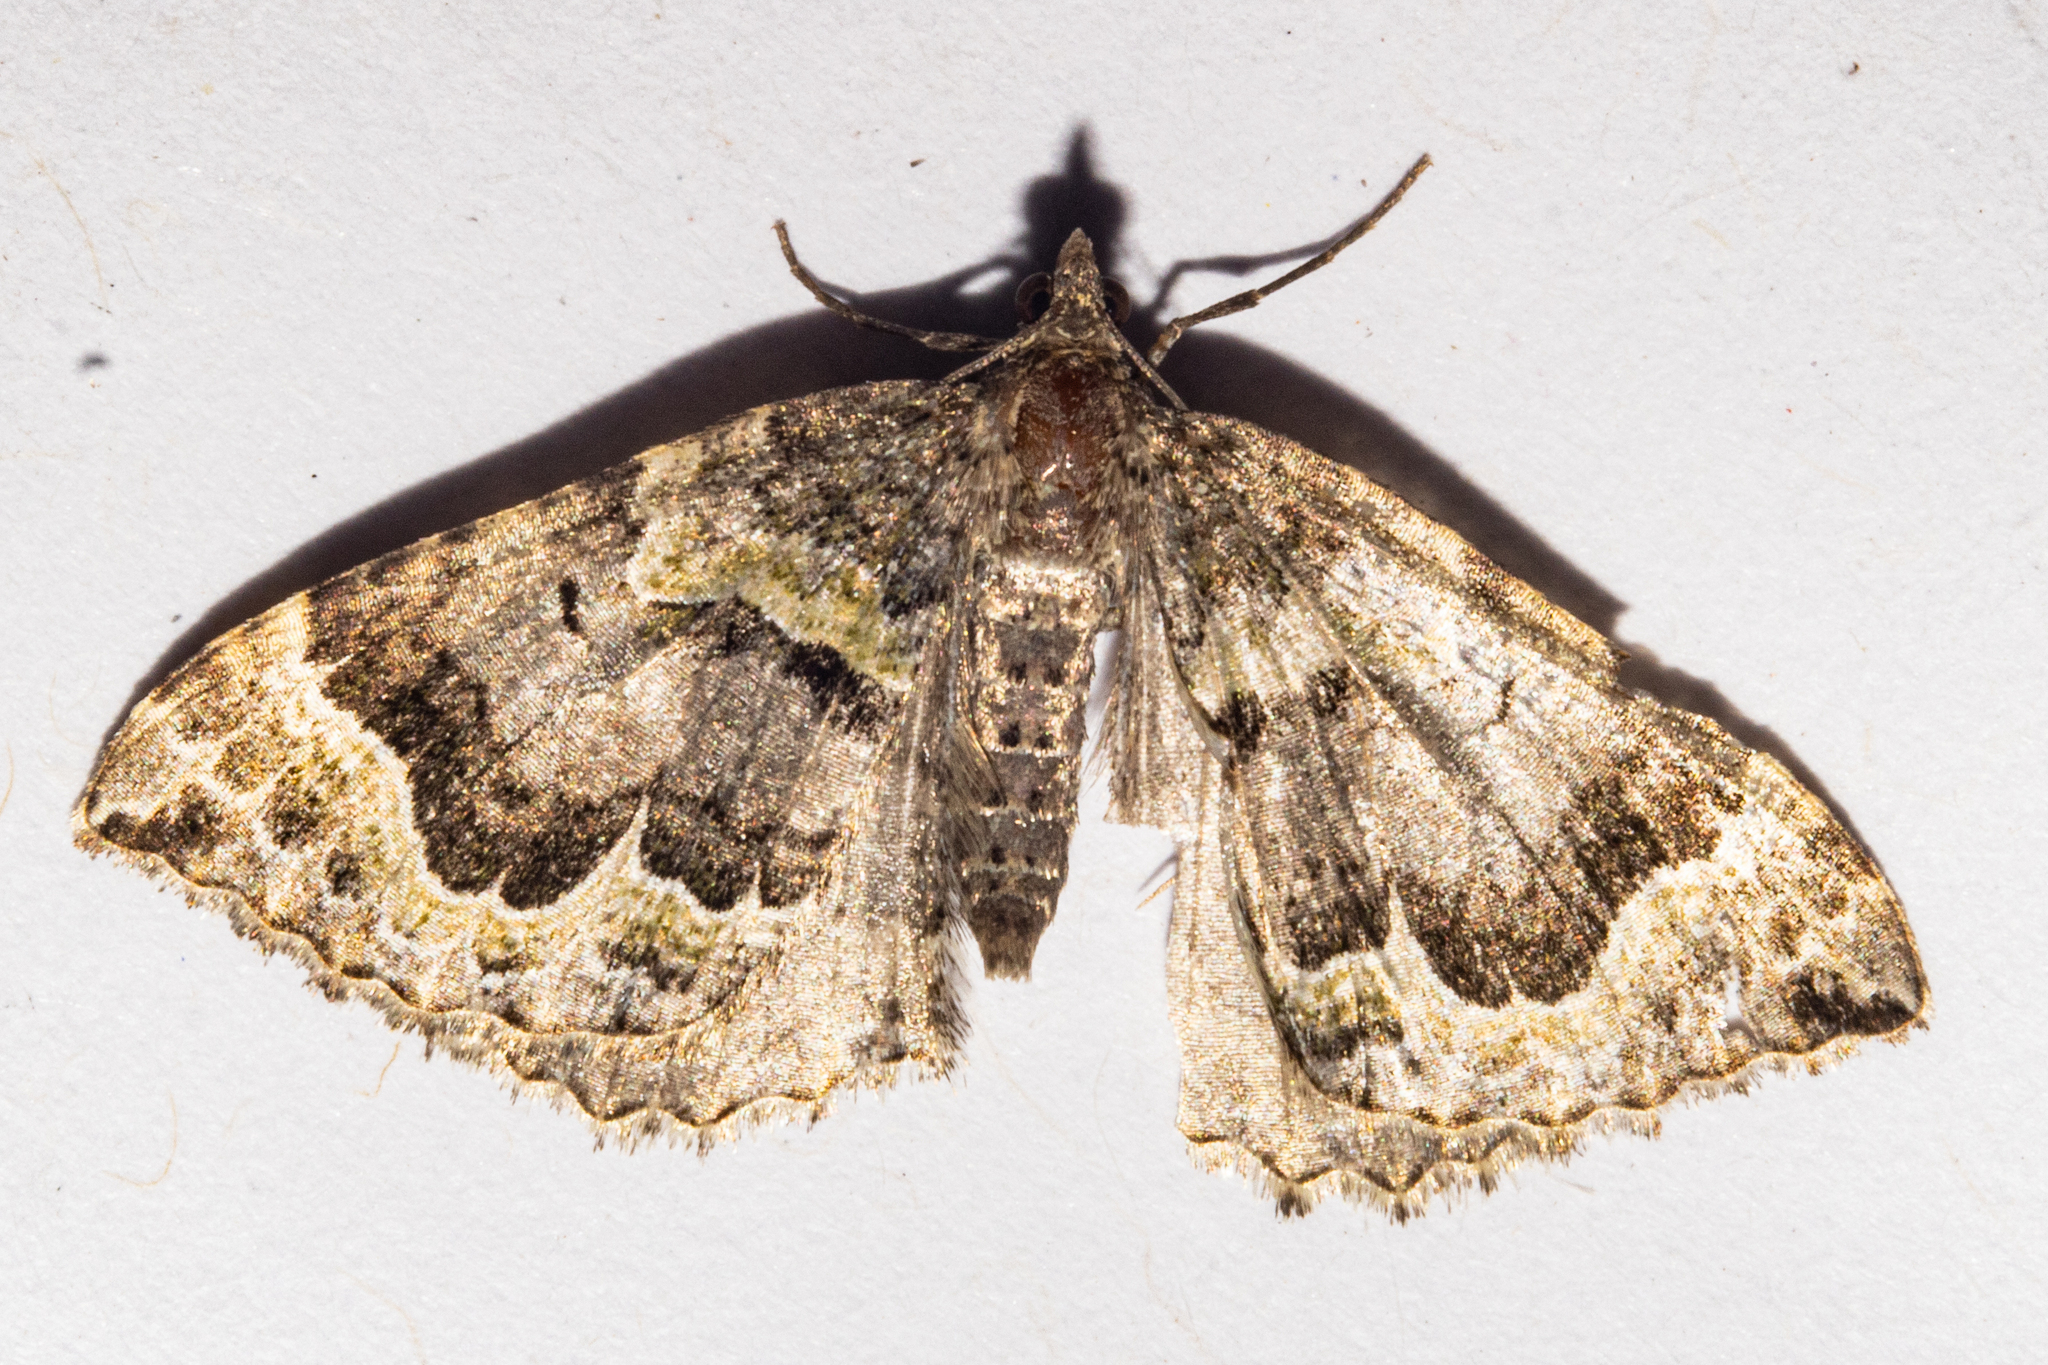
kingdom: Animalia
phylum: Arthropoda
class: Insecta
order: Lepidoptera
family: Geometridae
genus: Hydriomena
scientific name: Hydriomena rixata
